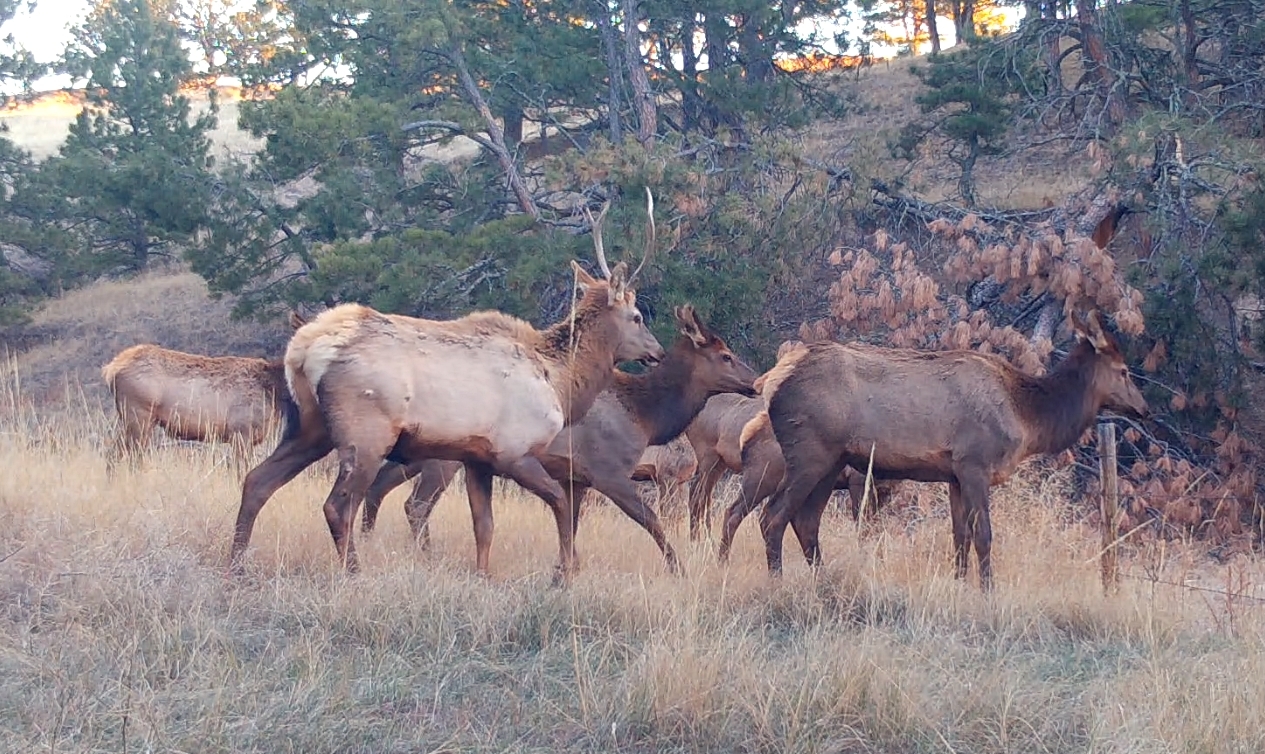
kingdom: Animalia
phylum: Chordata
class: Mammalia
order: Artiodactyla
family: Cervidae
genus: Cervus
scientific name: Cervus elaphus
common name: Red deer
